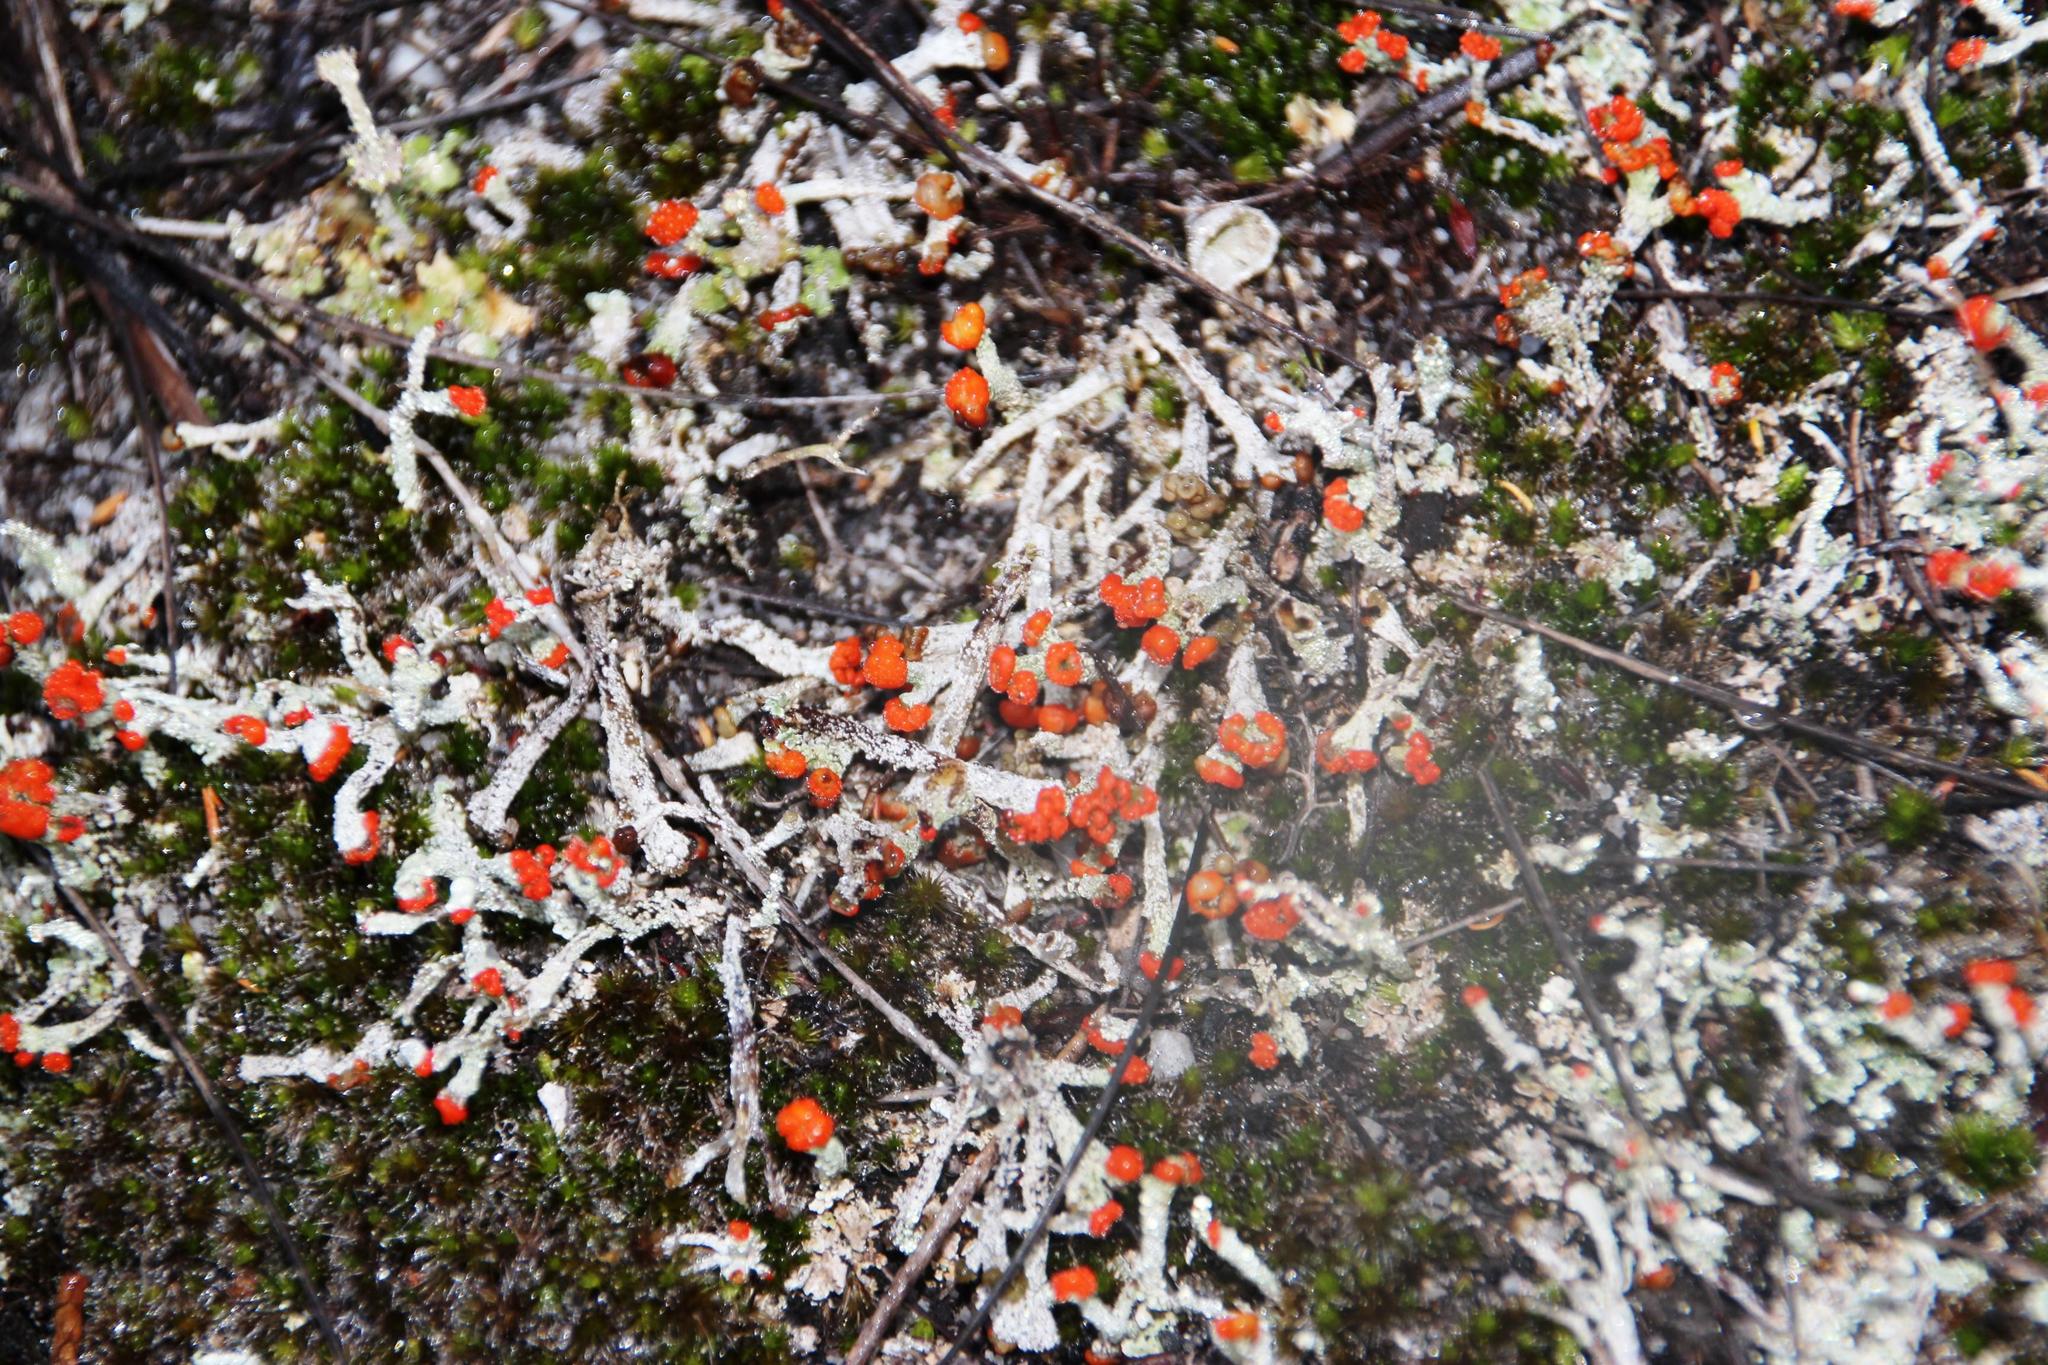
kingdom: Fungi
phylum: Ascomycota
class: Lecanoromycetes
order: Lecanorales
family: Cladoniaceae
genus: Cladonia
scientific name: Cladonia floerkeana
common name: Gritty british soldiers lichen
